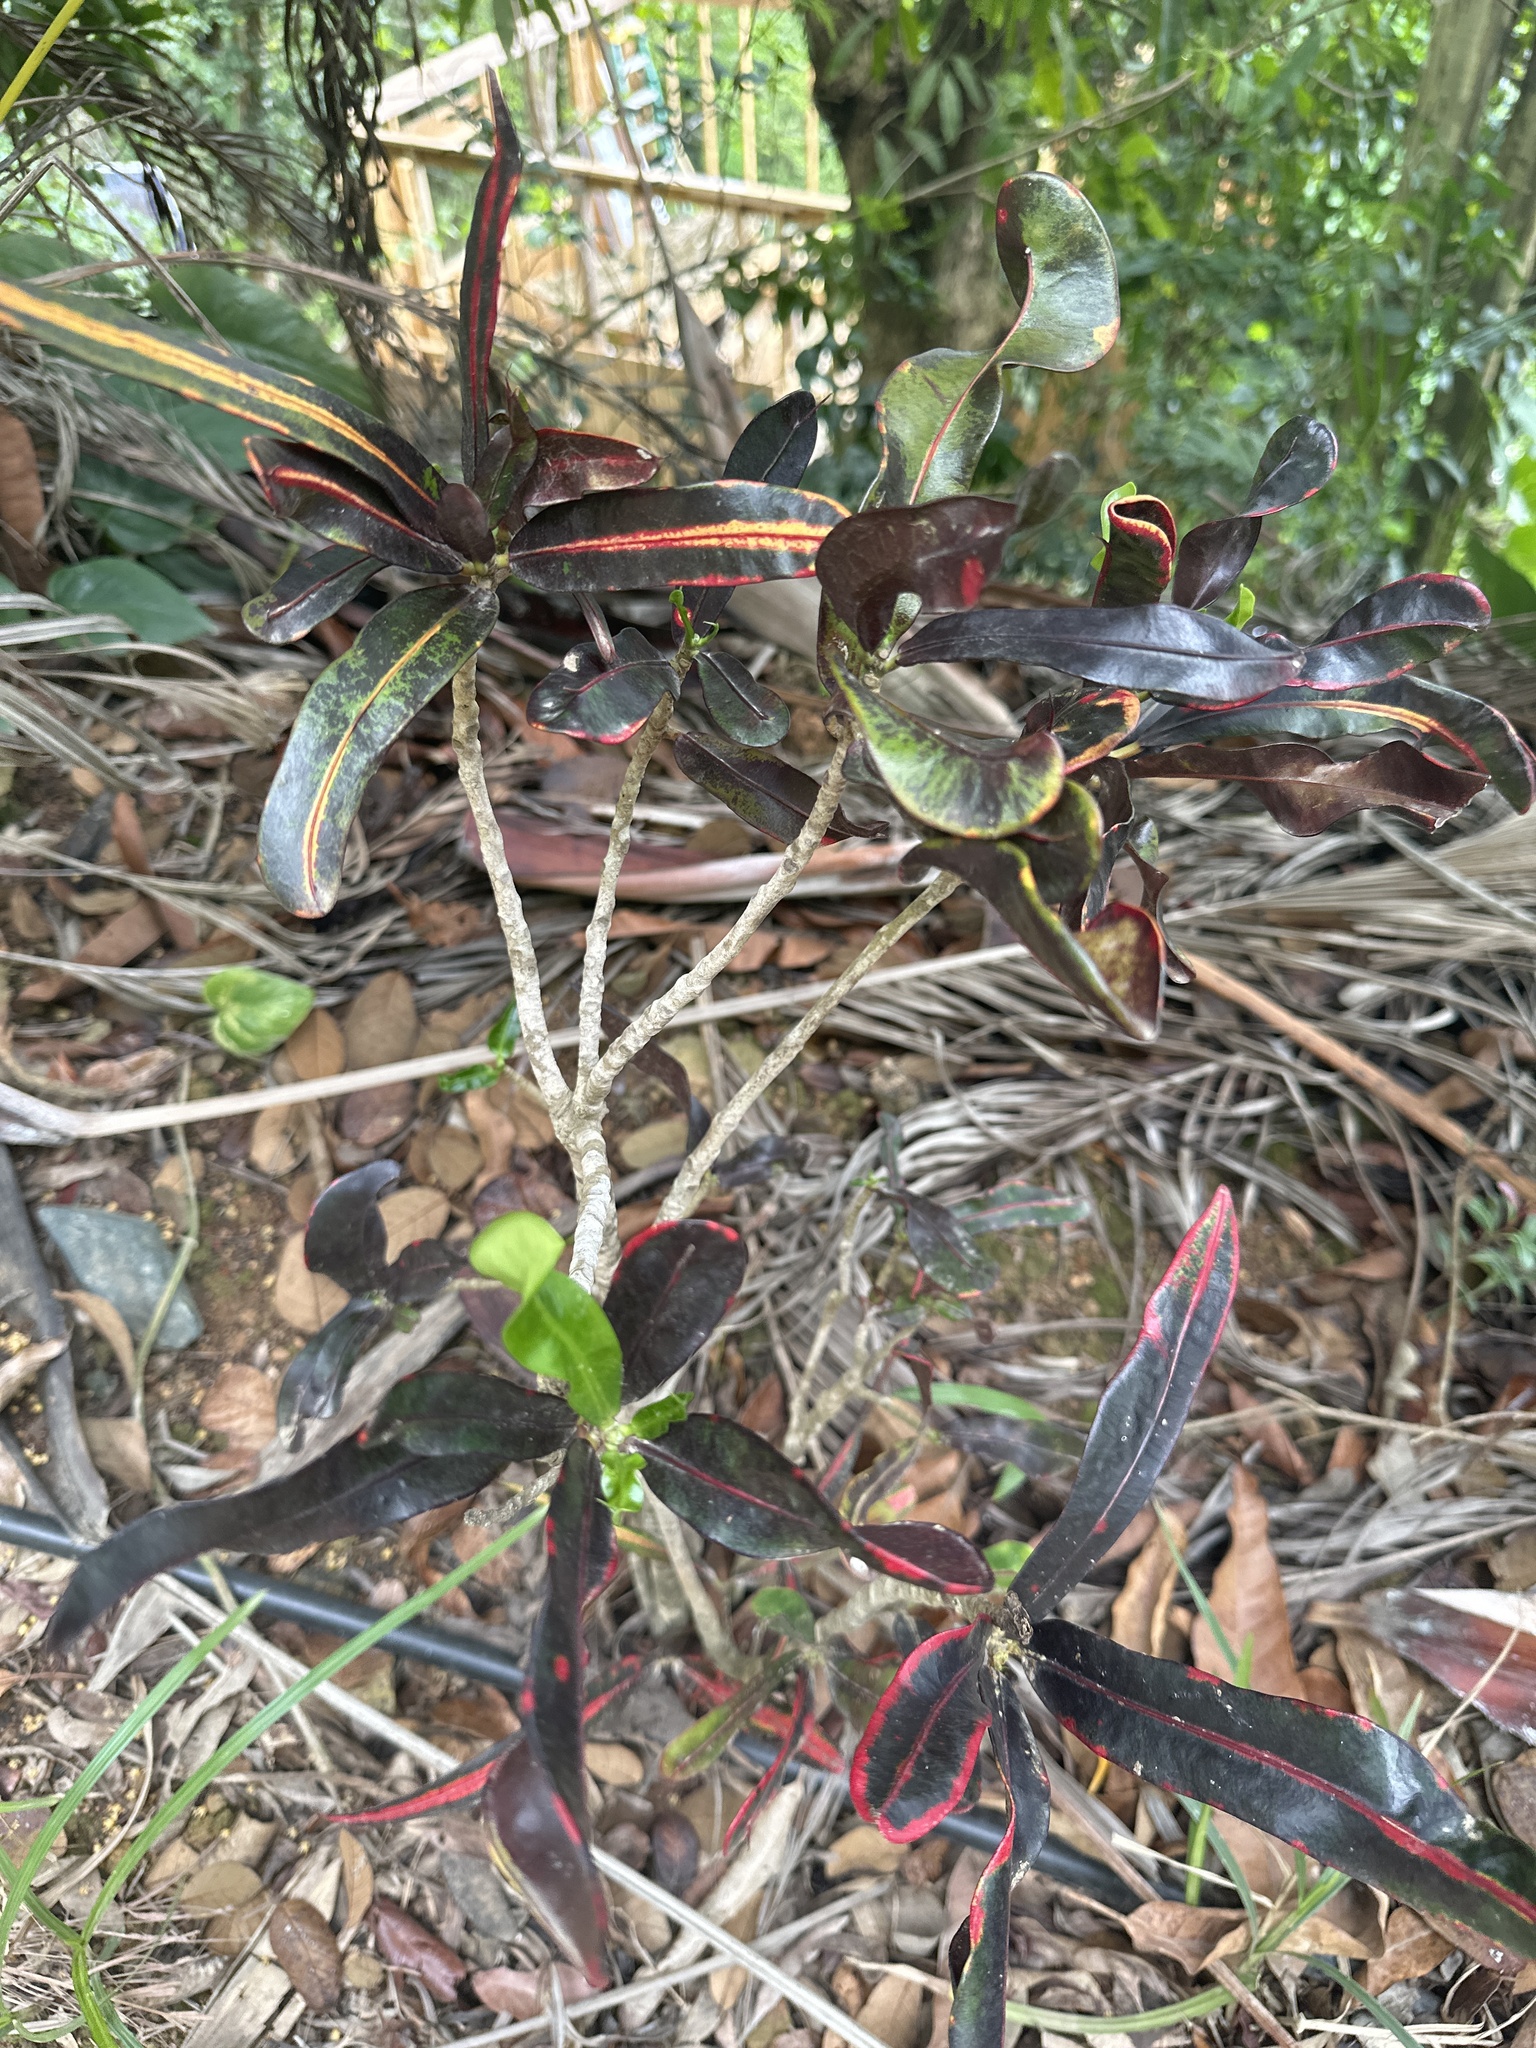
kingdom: Plantae
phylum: Tracheophyta
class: Magnoliopsida
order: Malpighiales
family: Euphorbiaceae
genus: Codiaeum
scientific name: Codiaeum variegatum
